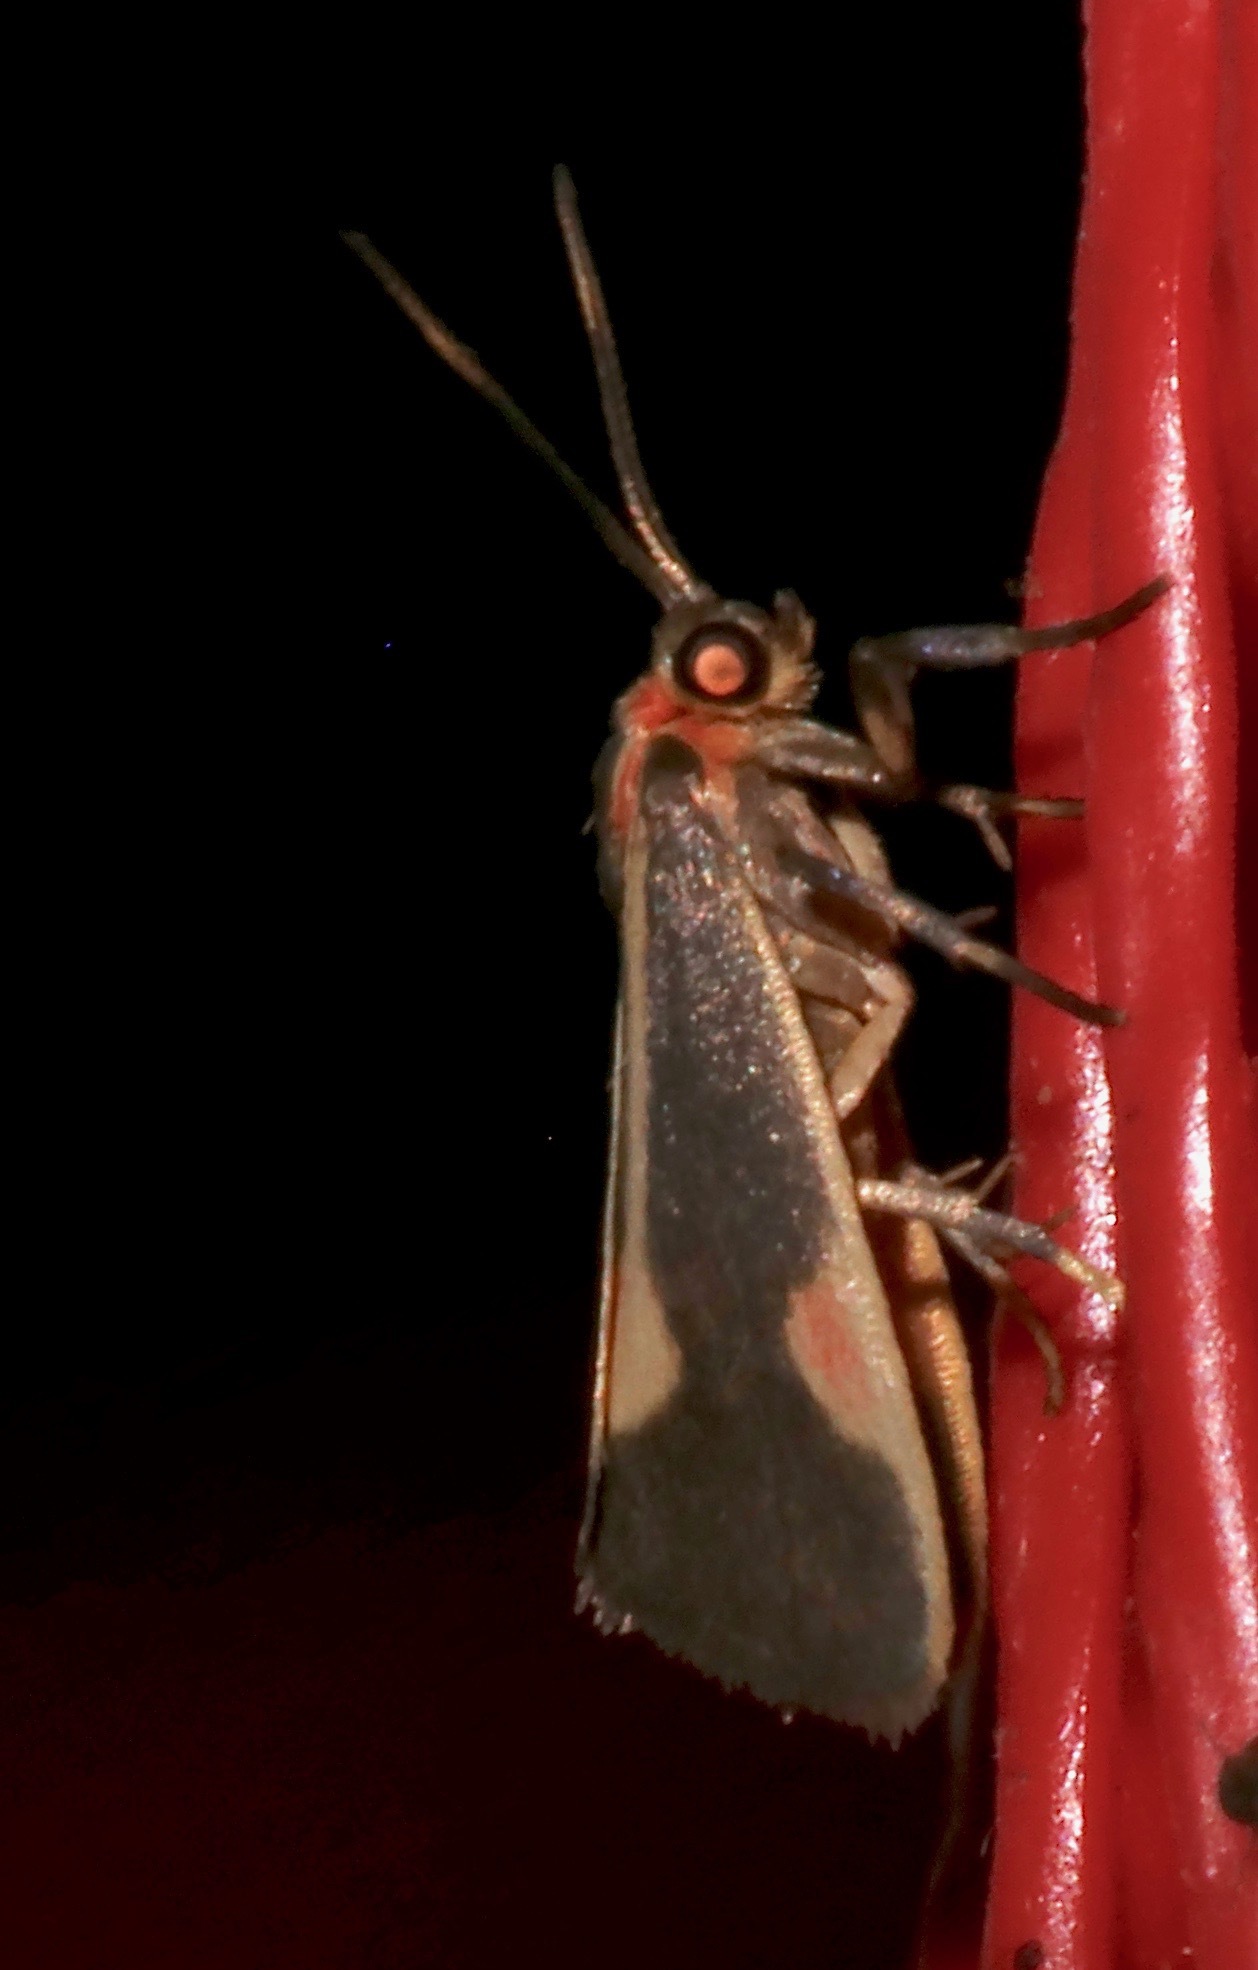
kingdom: Animalia
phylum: Arthropoda
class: Insecta
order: Lepidoptera
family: Erebidae
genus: Cisthene
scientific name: Cisthene packardii
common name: Packard's lichen moth
